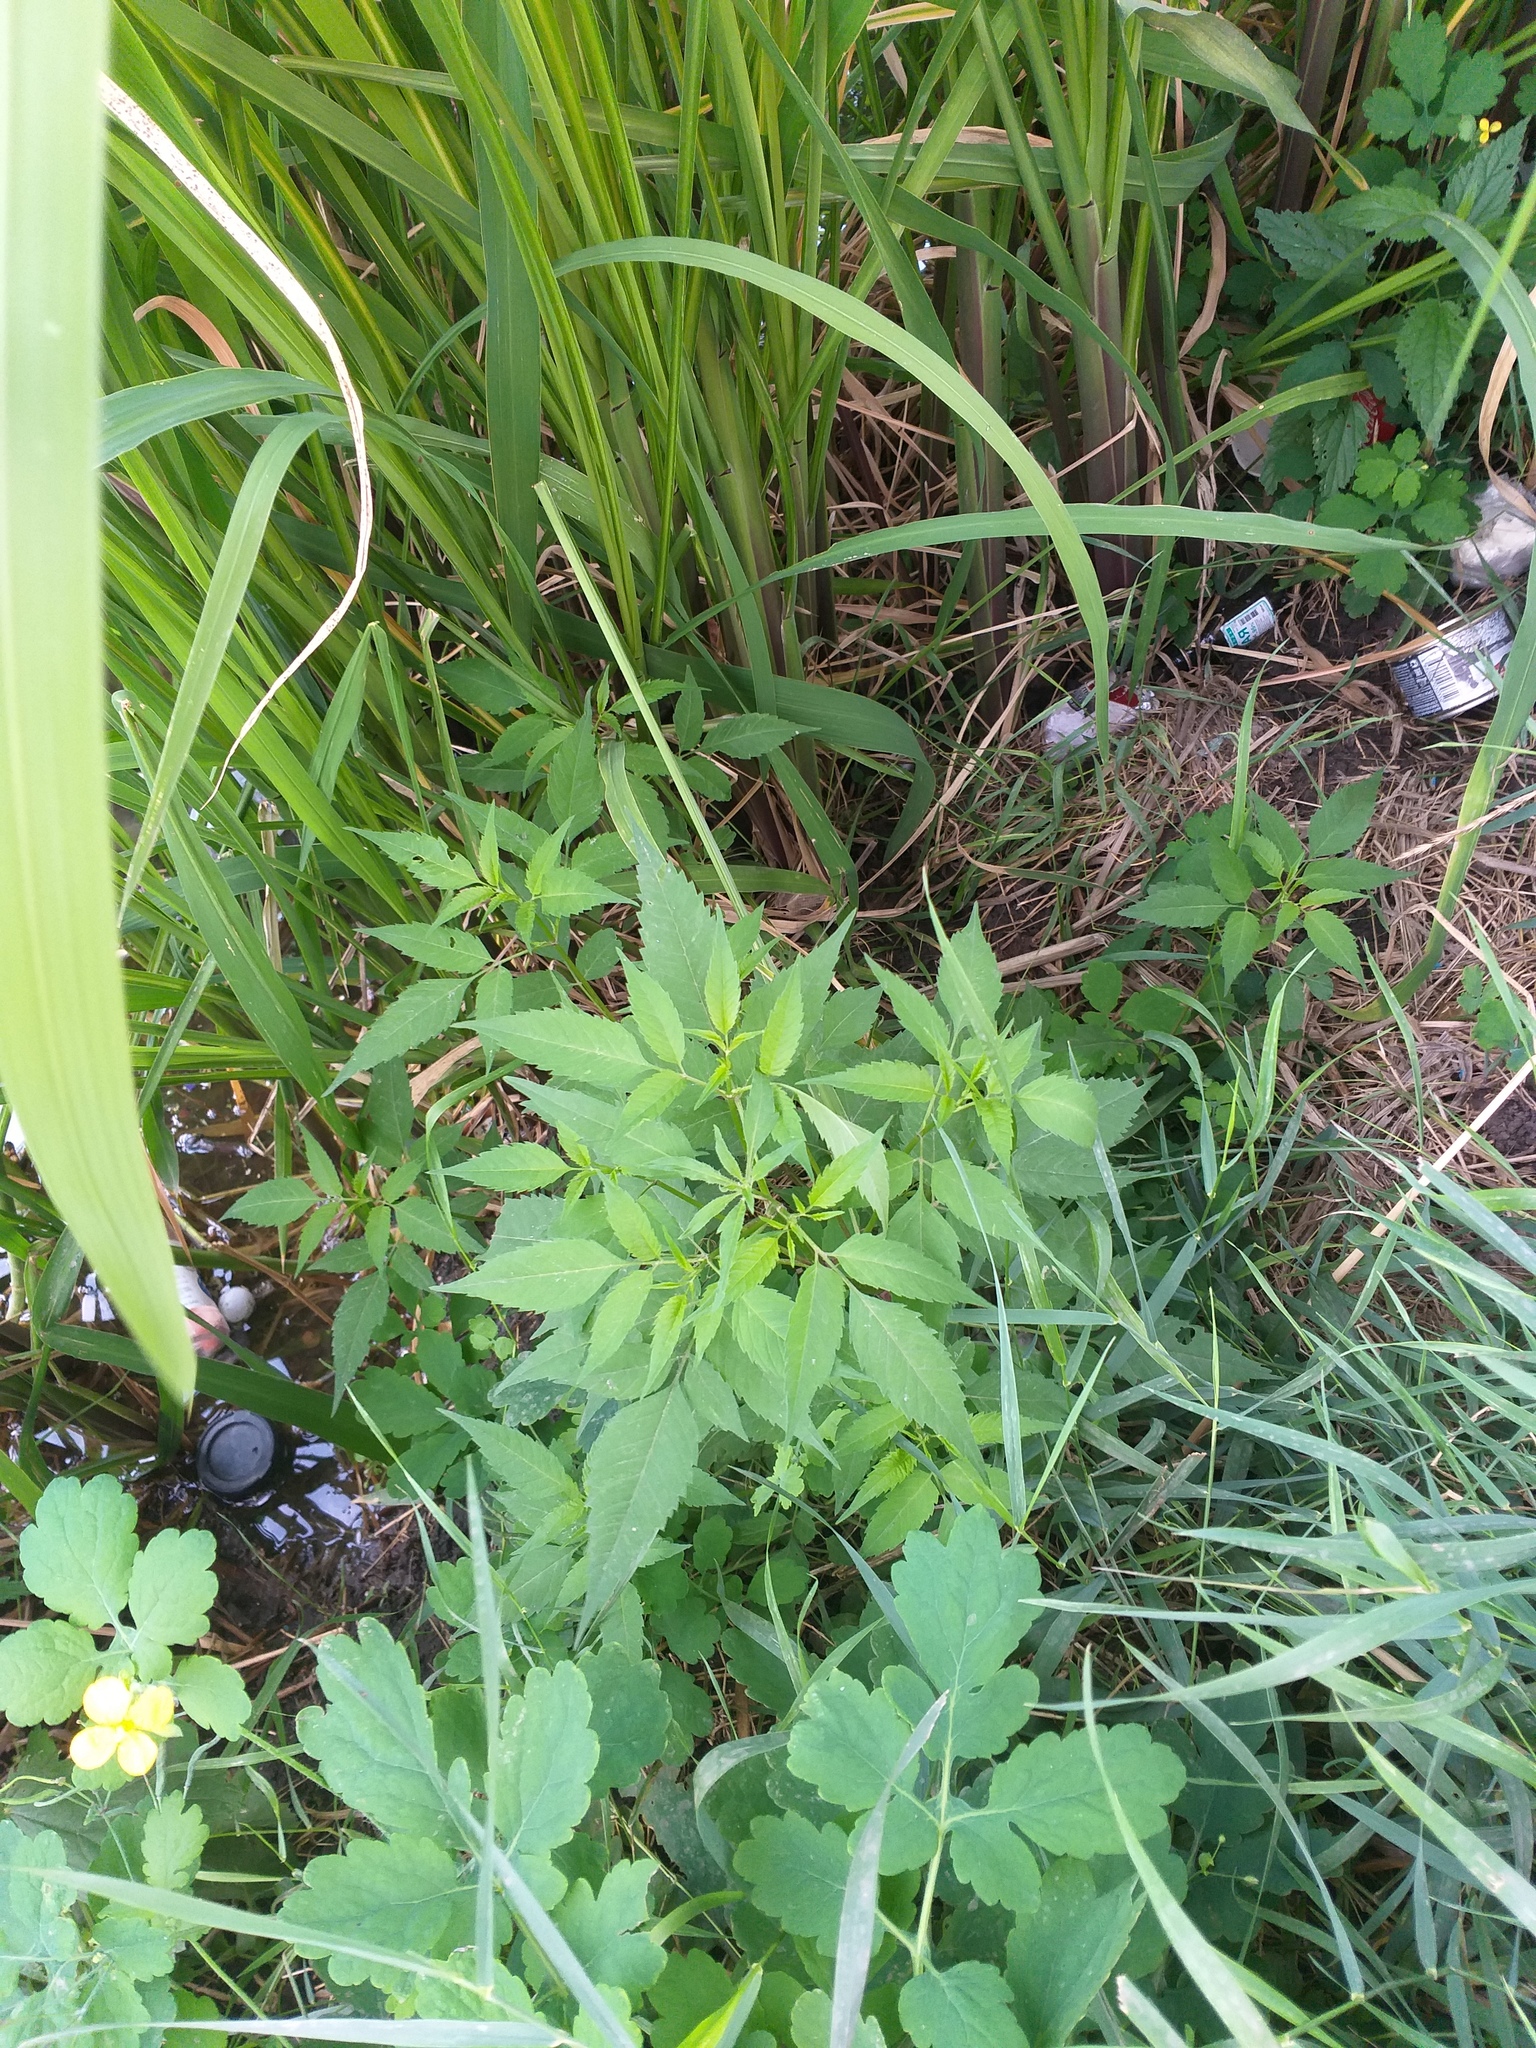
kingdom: Plantae
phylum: Tracheophyta
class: Magnoliopsida
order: Asterales
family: Asteraceae
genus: Bidens
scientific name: Bidens frondosa
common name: Beggarticks
